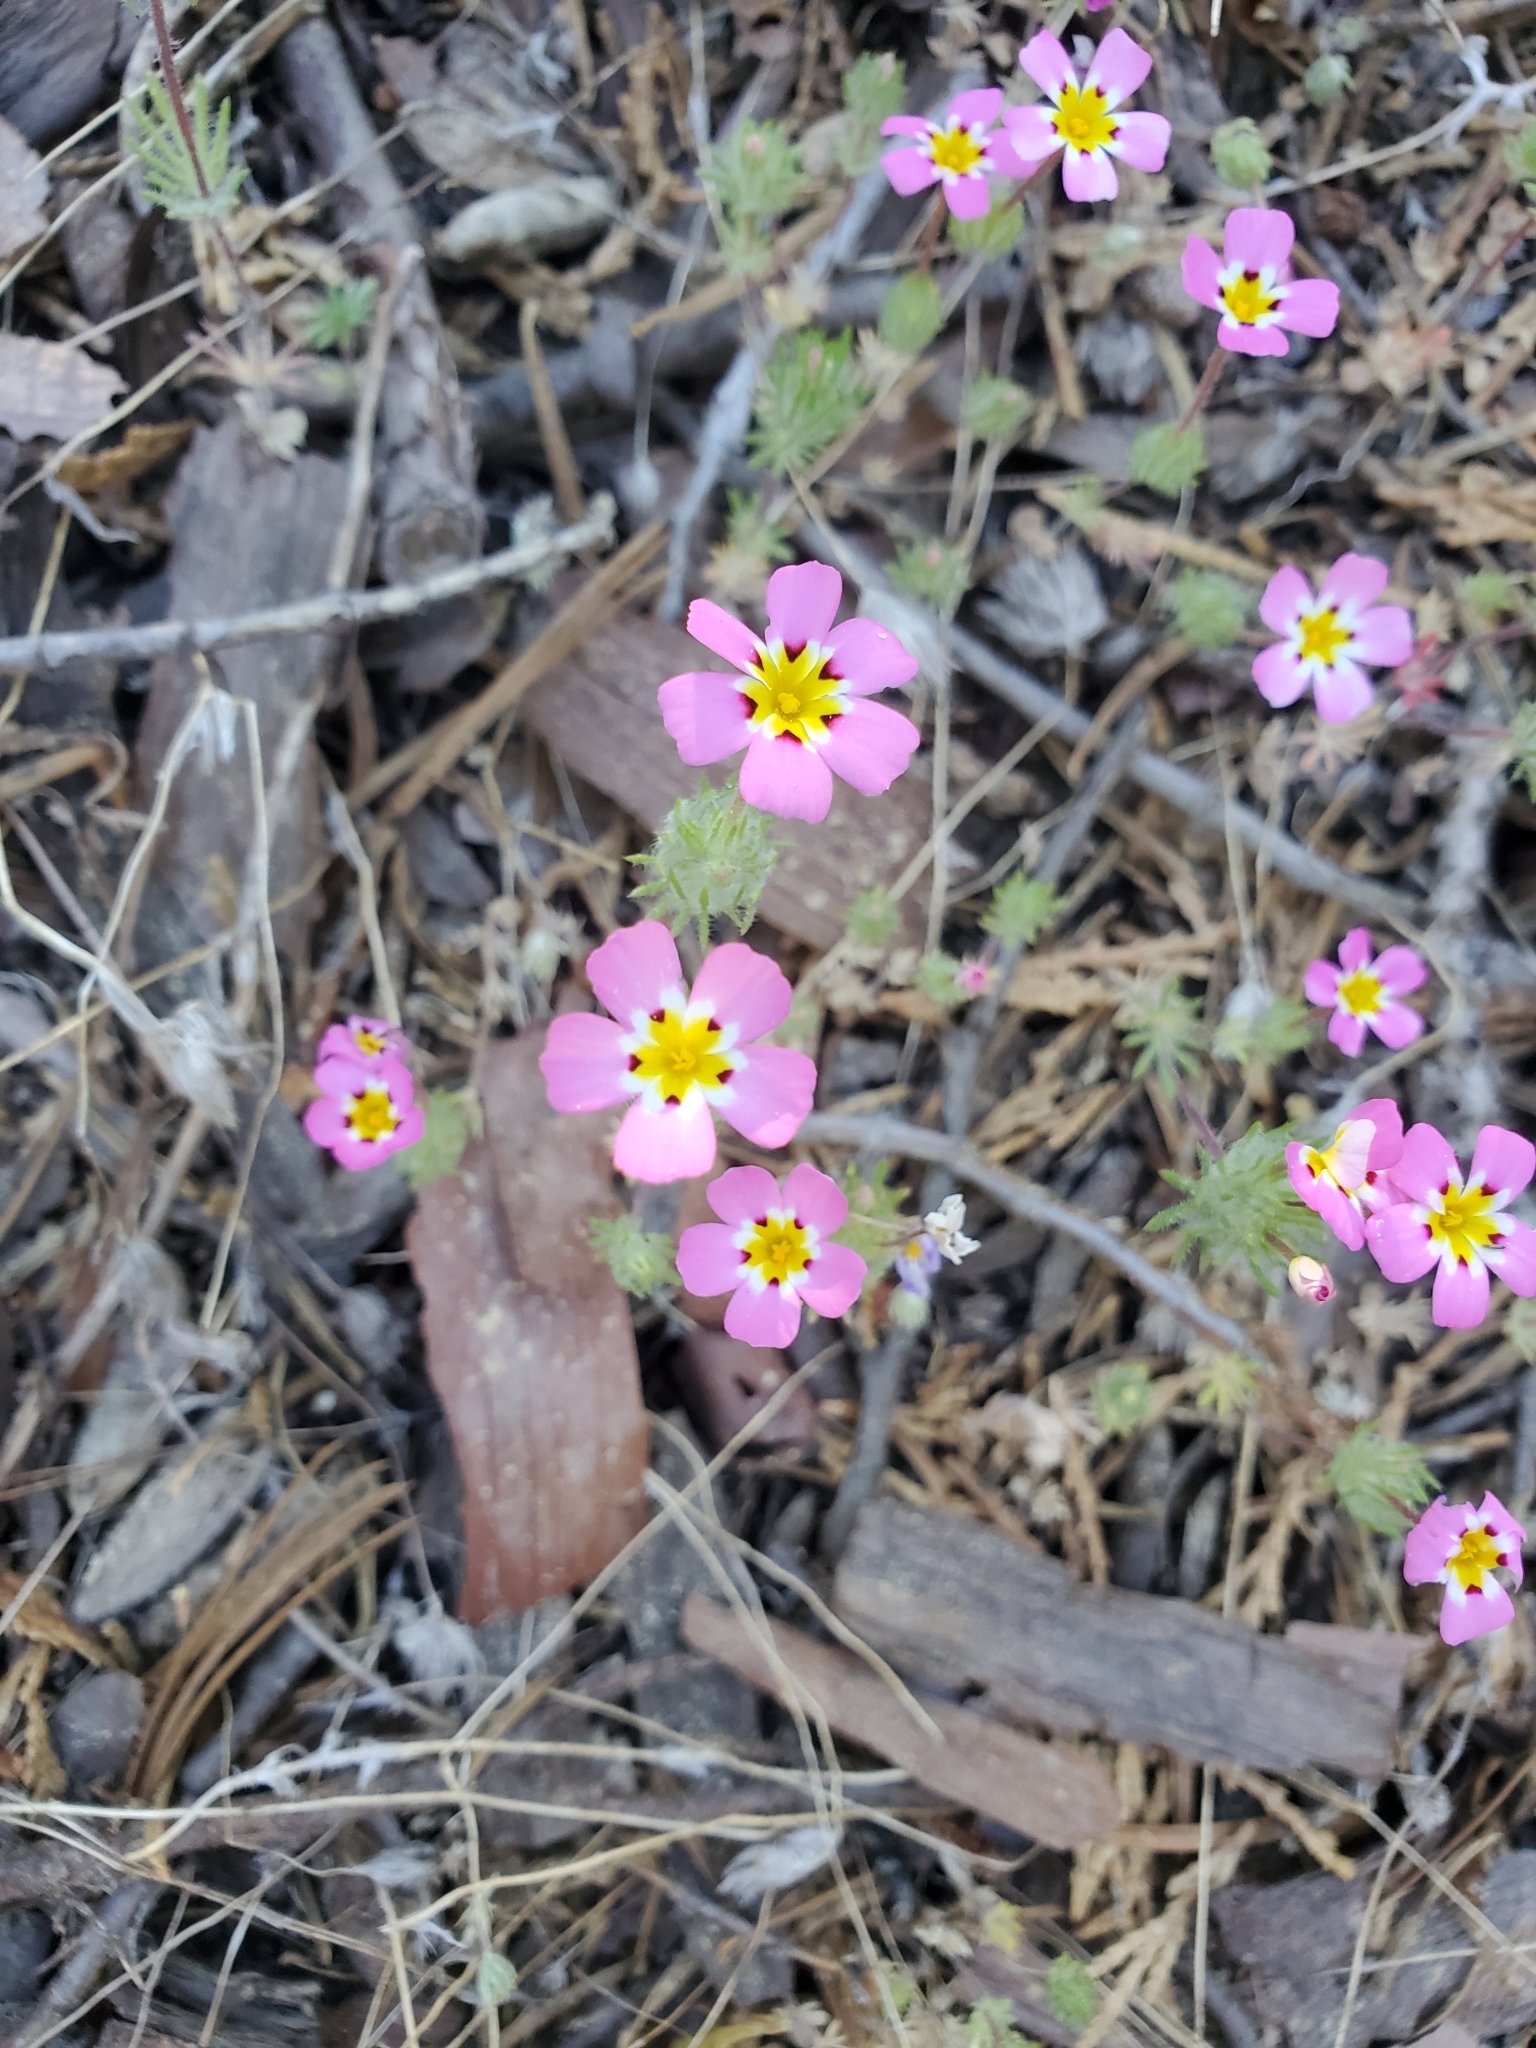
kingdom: Plantae
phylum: Tracheophyta
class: Magnoliopsida
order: Ericales
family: Polemoniaceae
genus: Leptosiphon
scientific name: Leptosiphon ciliatus
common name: Whiskerbrush
